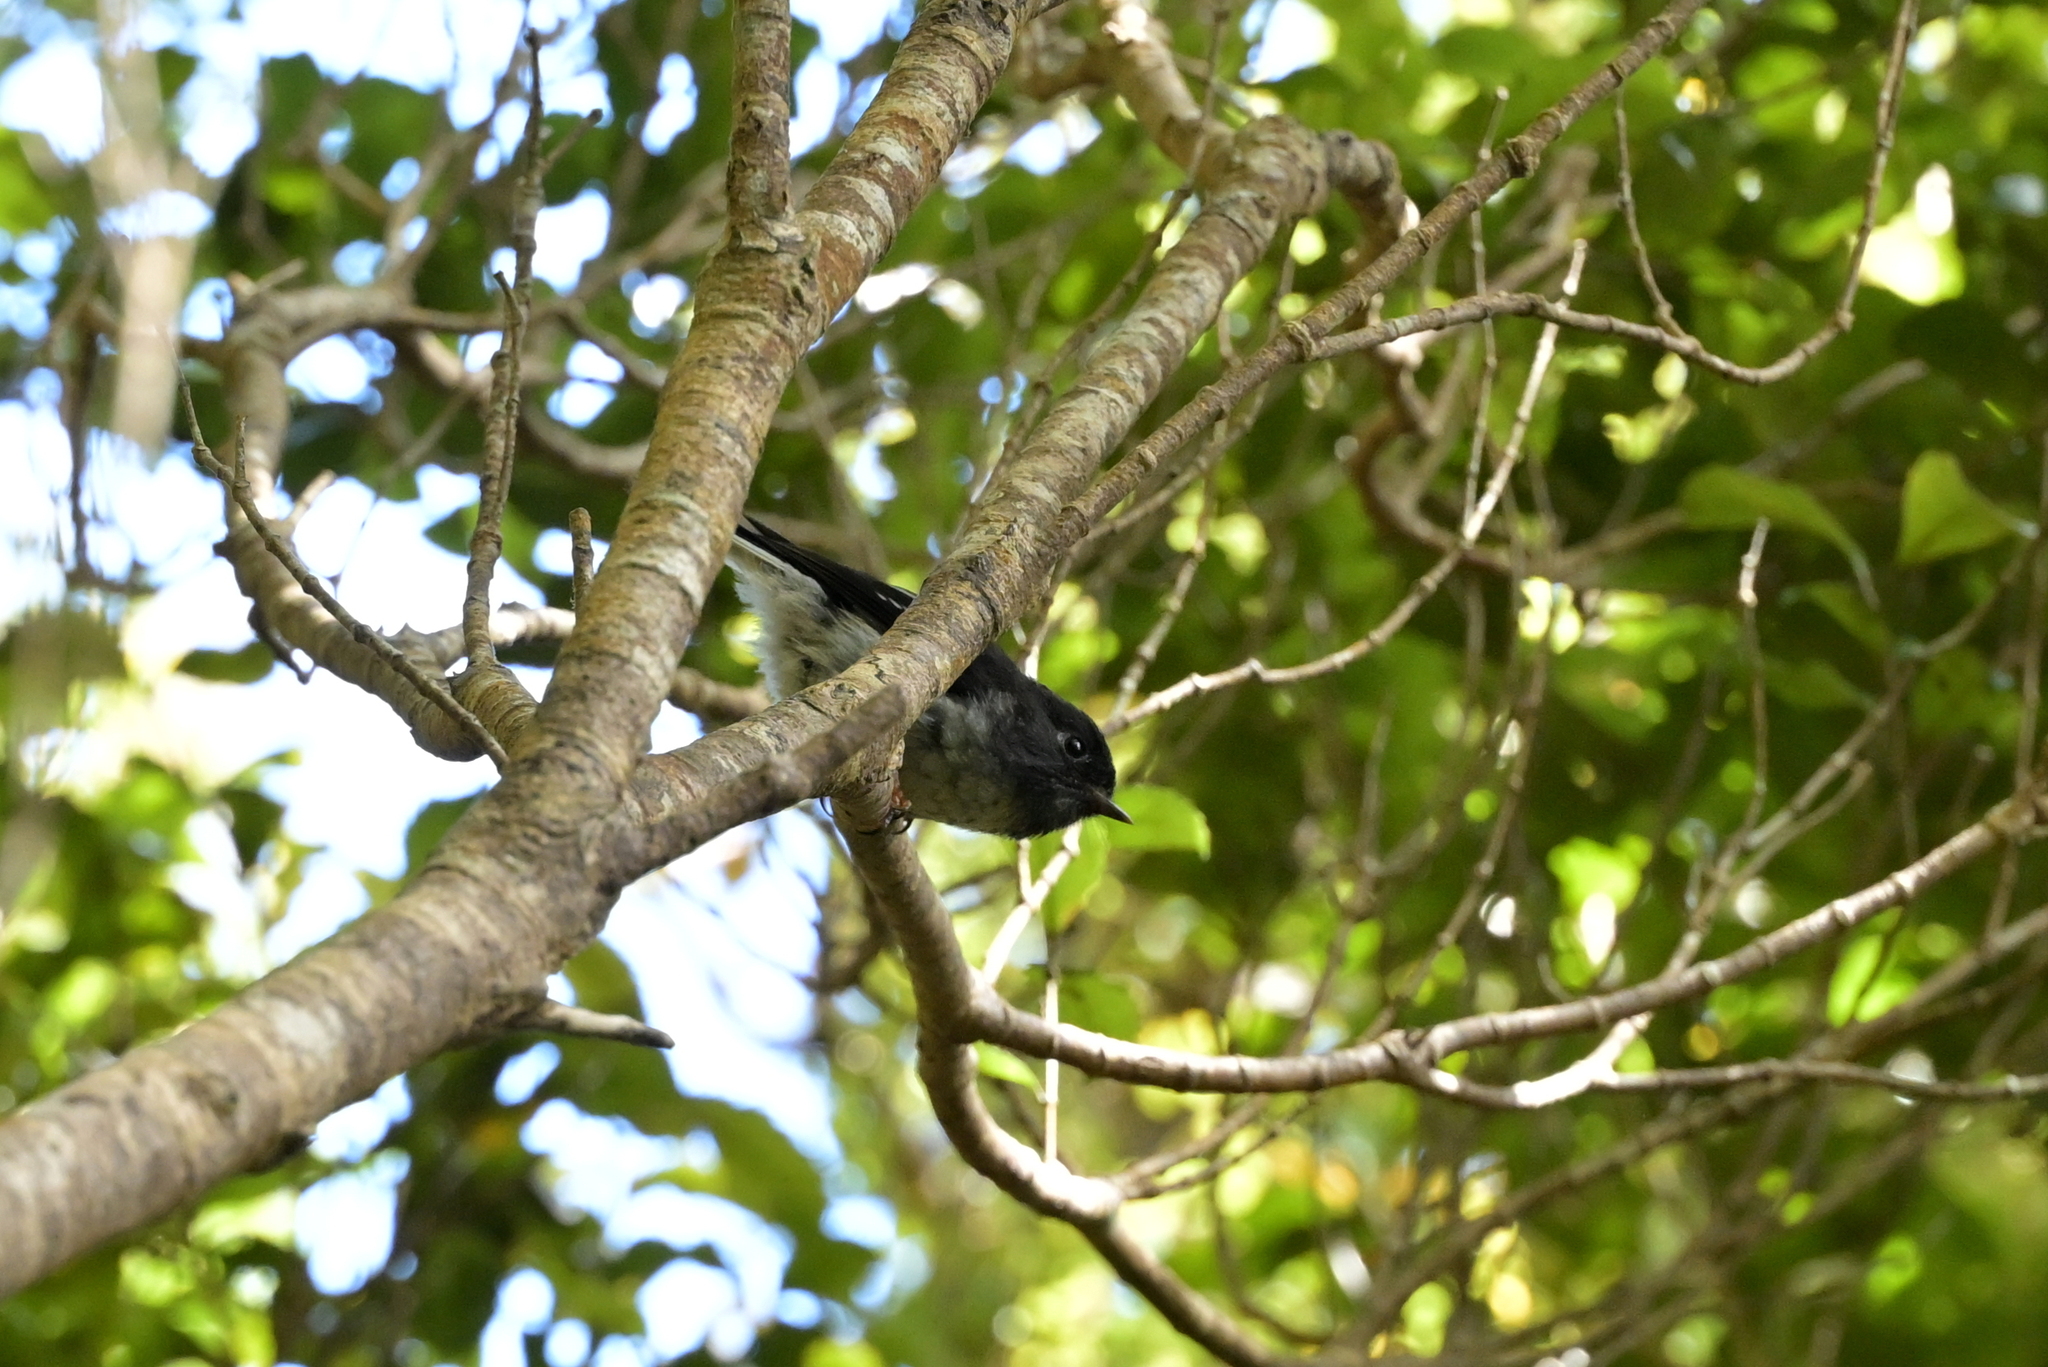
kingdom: Animalia
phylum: Chordata
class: Aves
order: Passeriformes
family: Petroicidae
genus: Petroica
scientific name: Petroica macrocephala
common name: Tomtit
